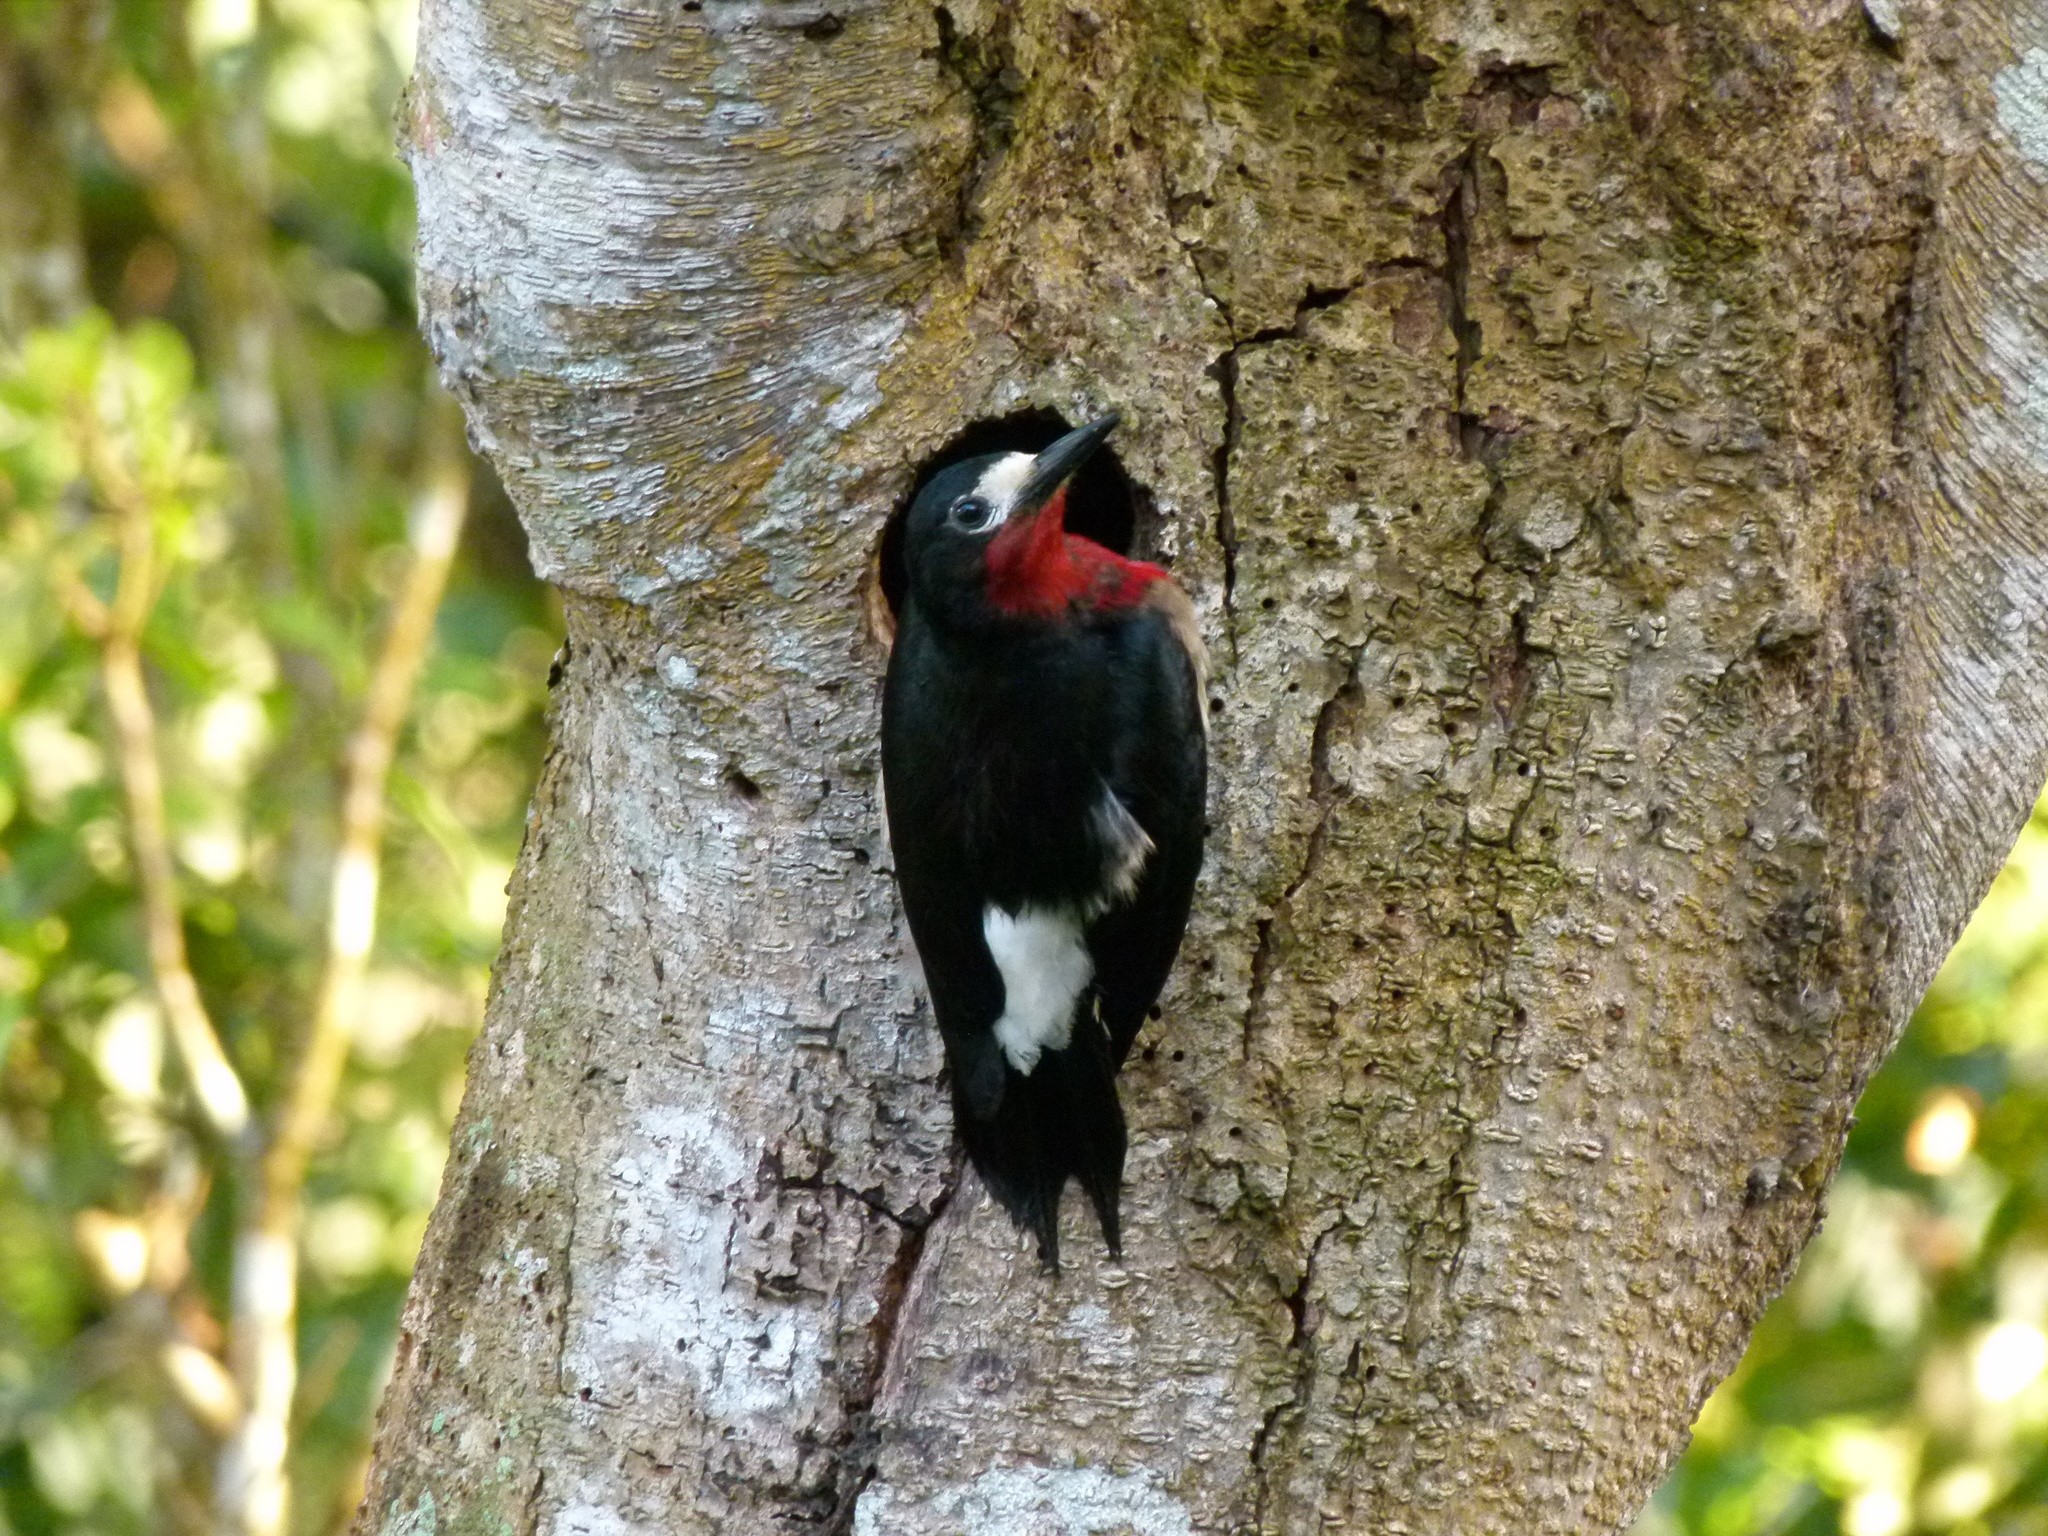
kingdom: Animalia
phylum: Chordata
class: Aves
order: Piciformes
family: Picidae
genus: Melanerpes
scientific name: Melanerpes portoricensis
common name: Puerto rican woodpecker
